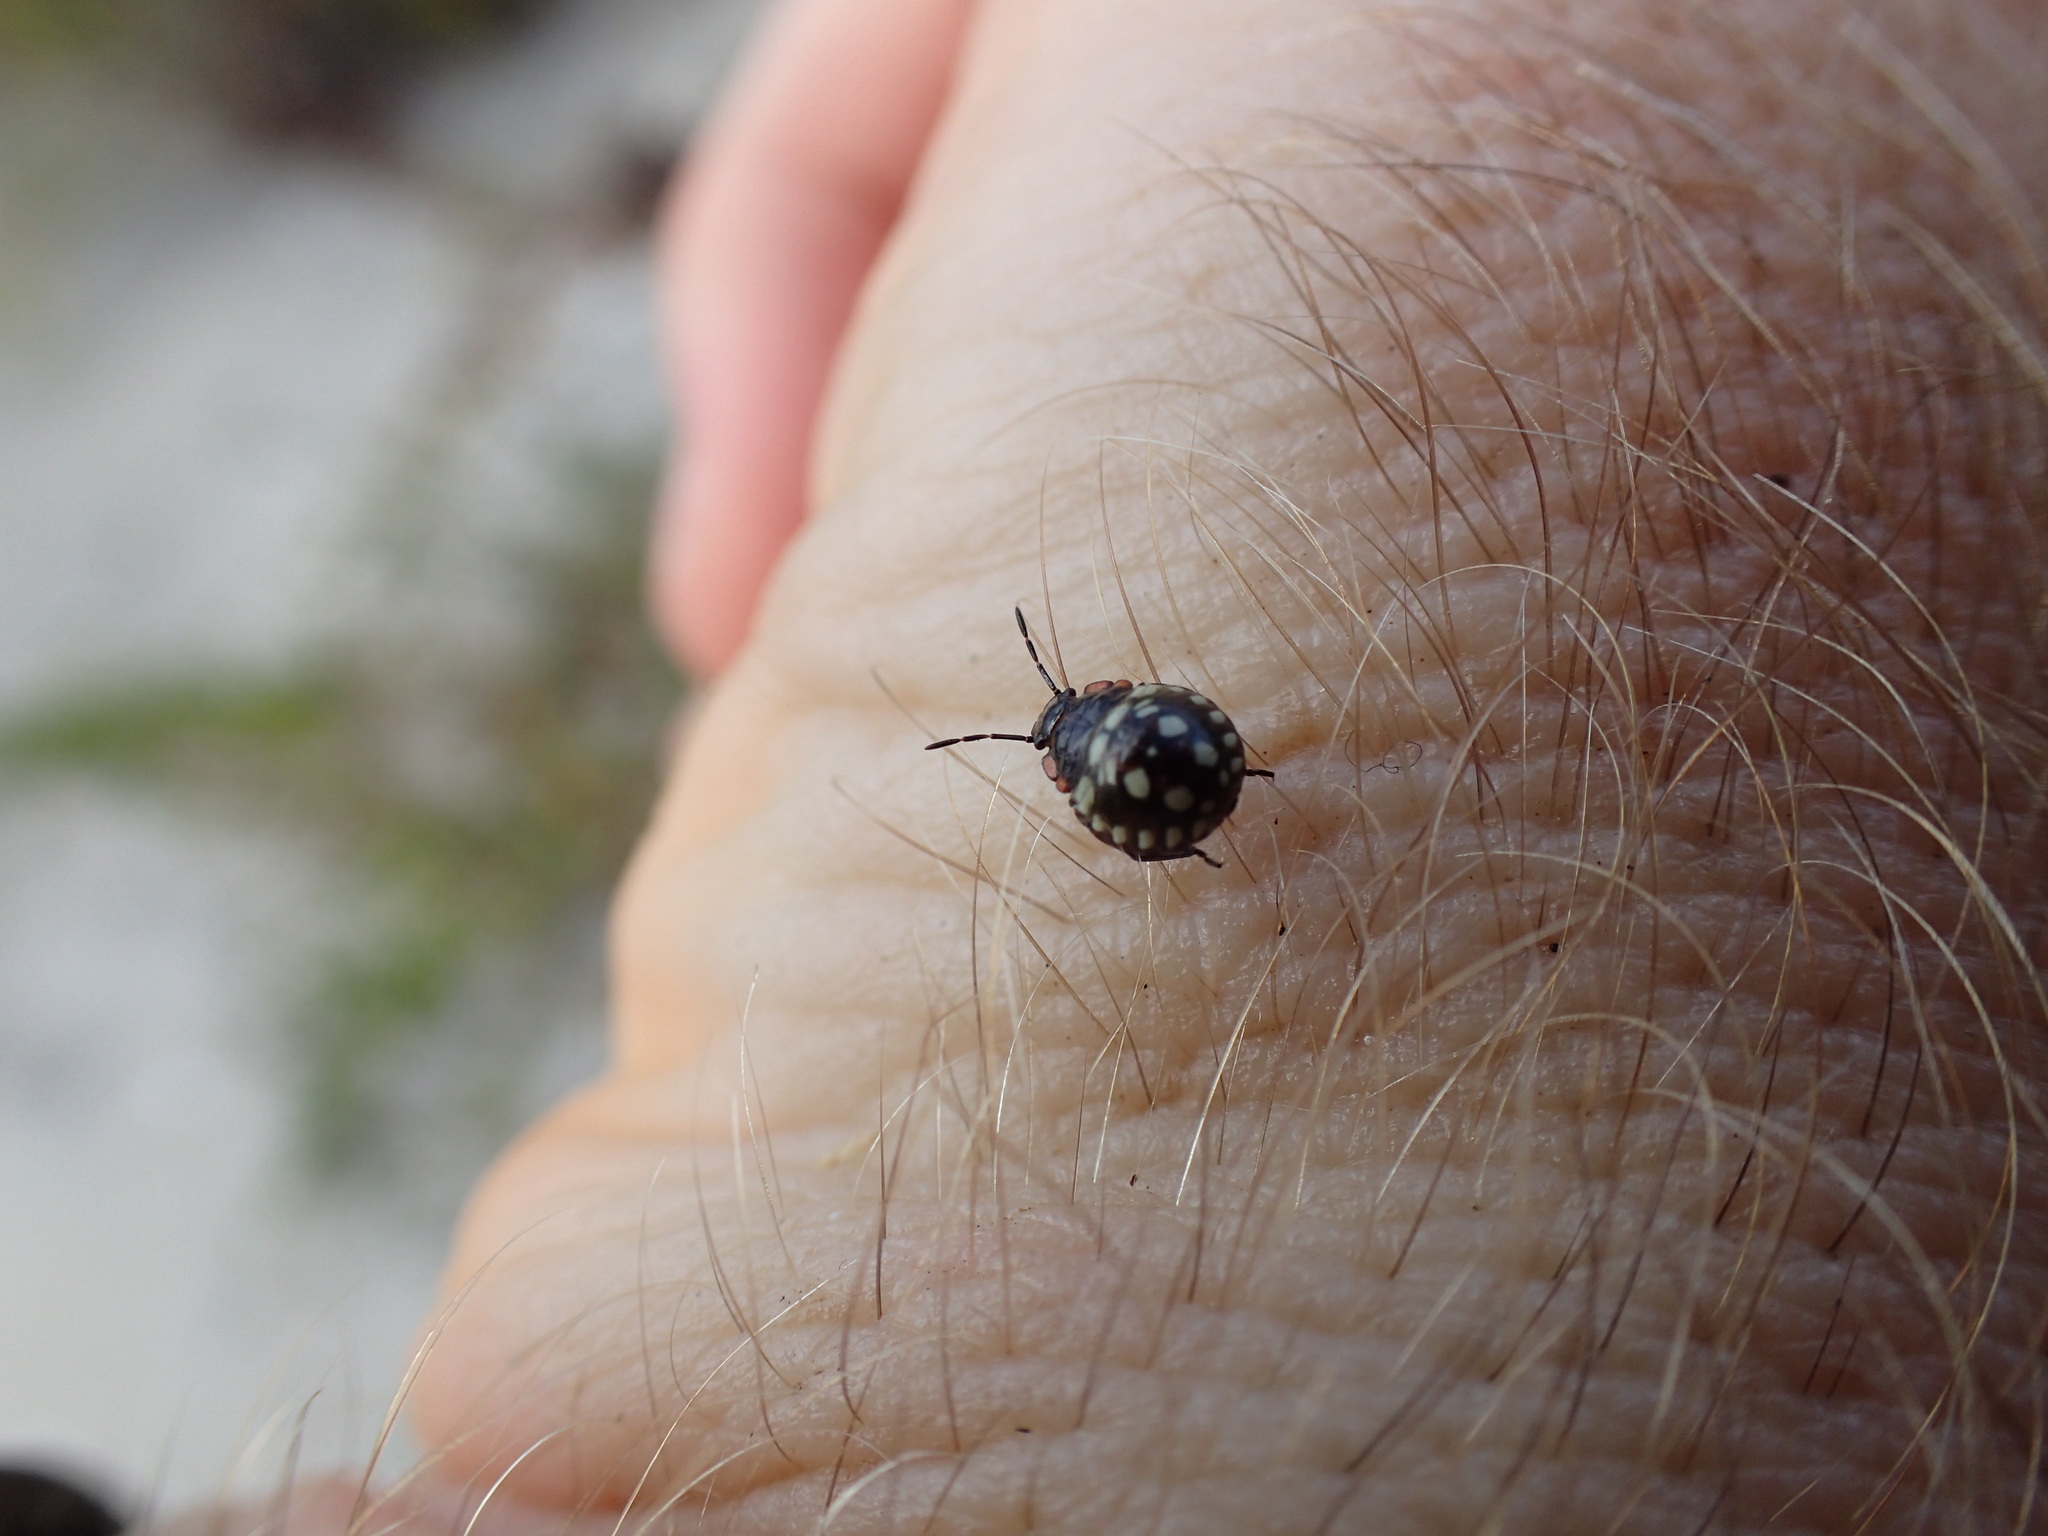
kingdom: Animalia
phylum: Arthropoda
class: Insecta
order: Hemiptera
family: Pentatomidae
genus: Nezara
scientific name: Nezara viridula
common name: Southern green stink bug
